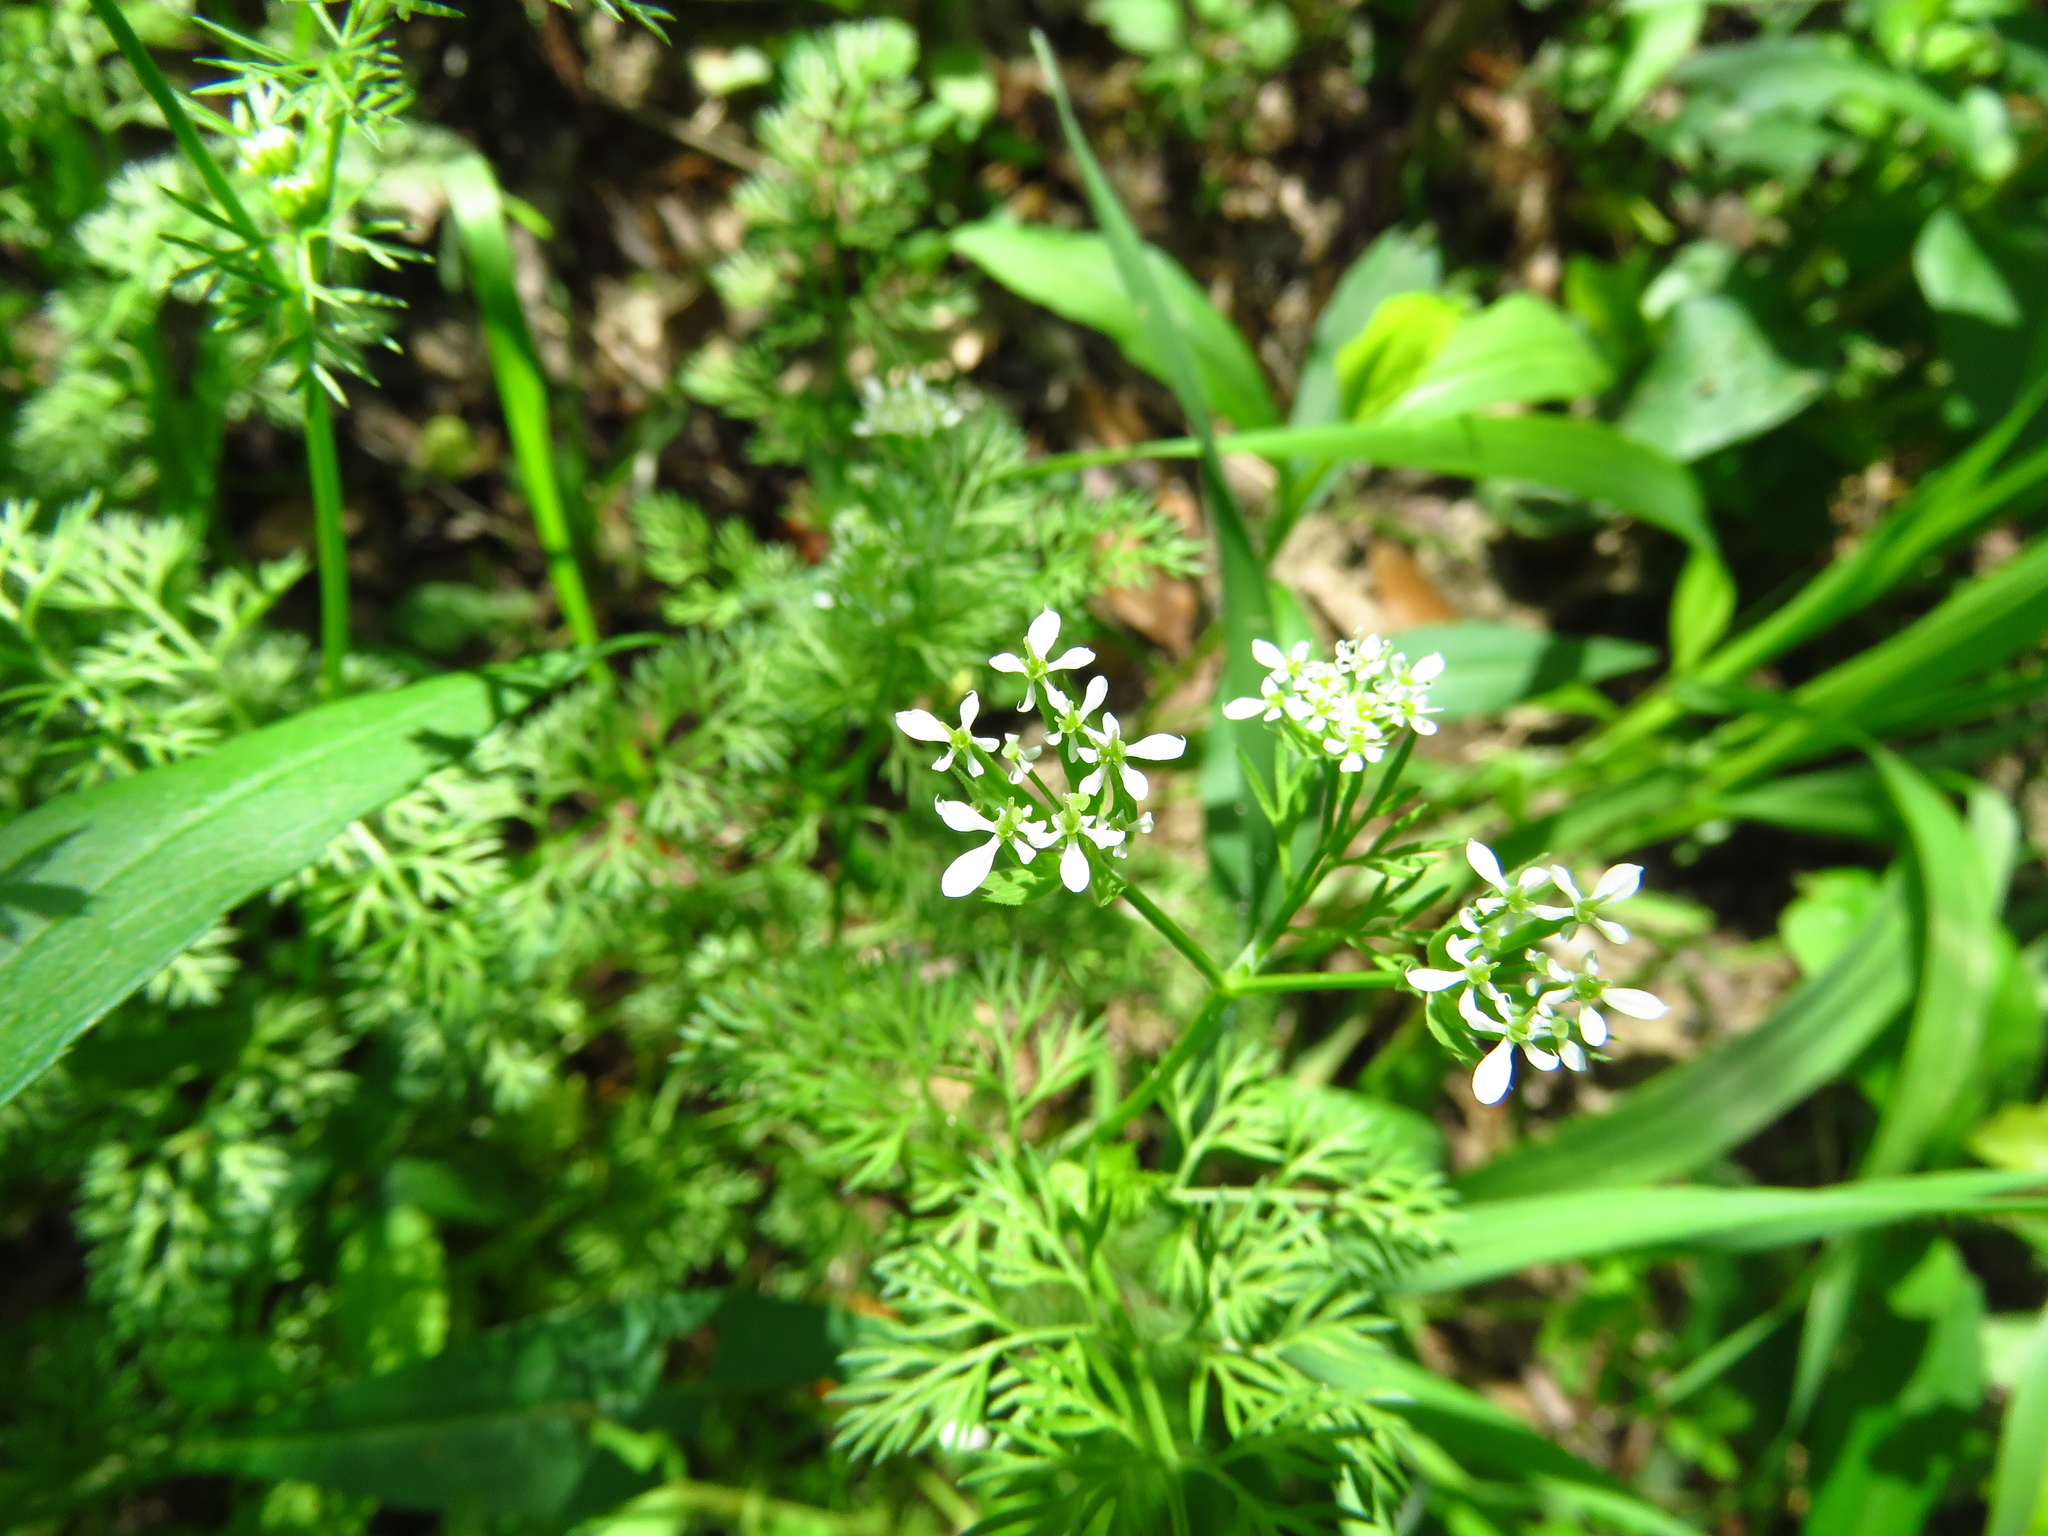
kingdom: Plantae
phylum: Tracheophyta
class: Magnoliopsida
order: Apiales
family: Apiaceae
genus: Scandix
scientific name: Scandix pecten-veneris
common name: Shepherd's-needle
